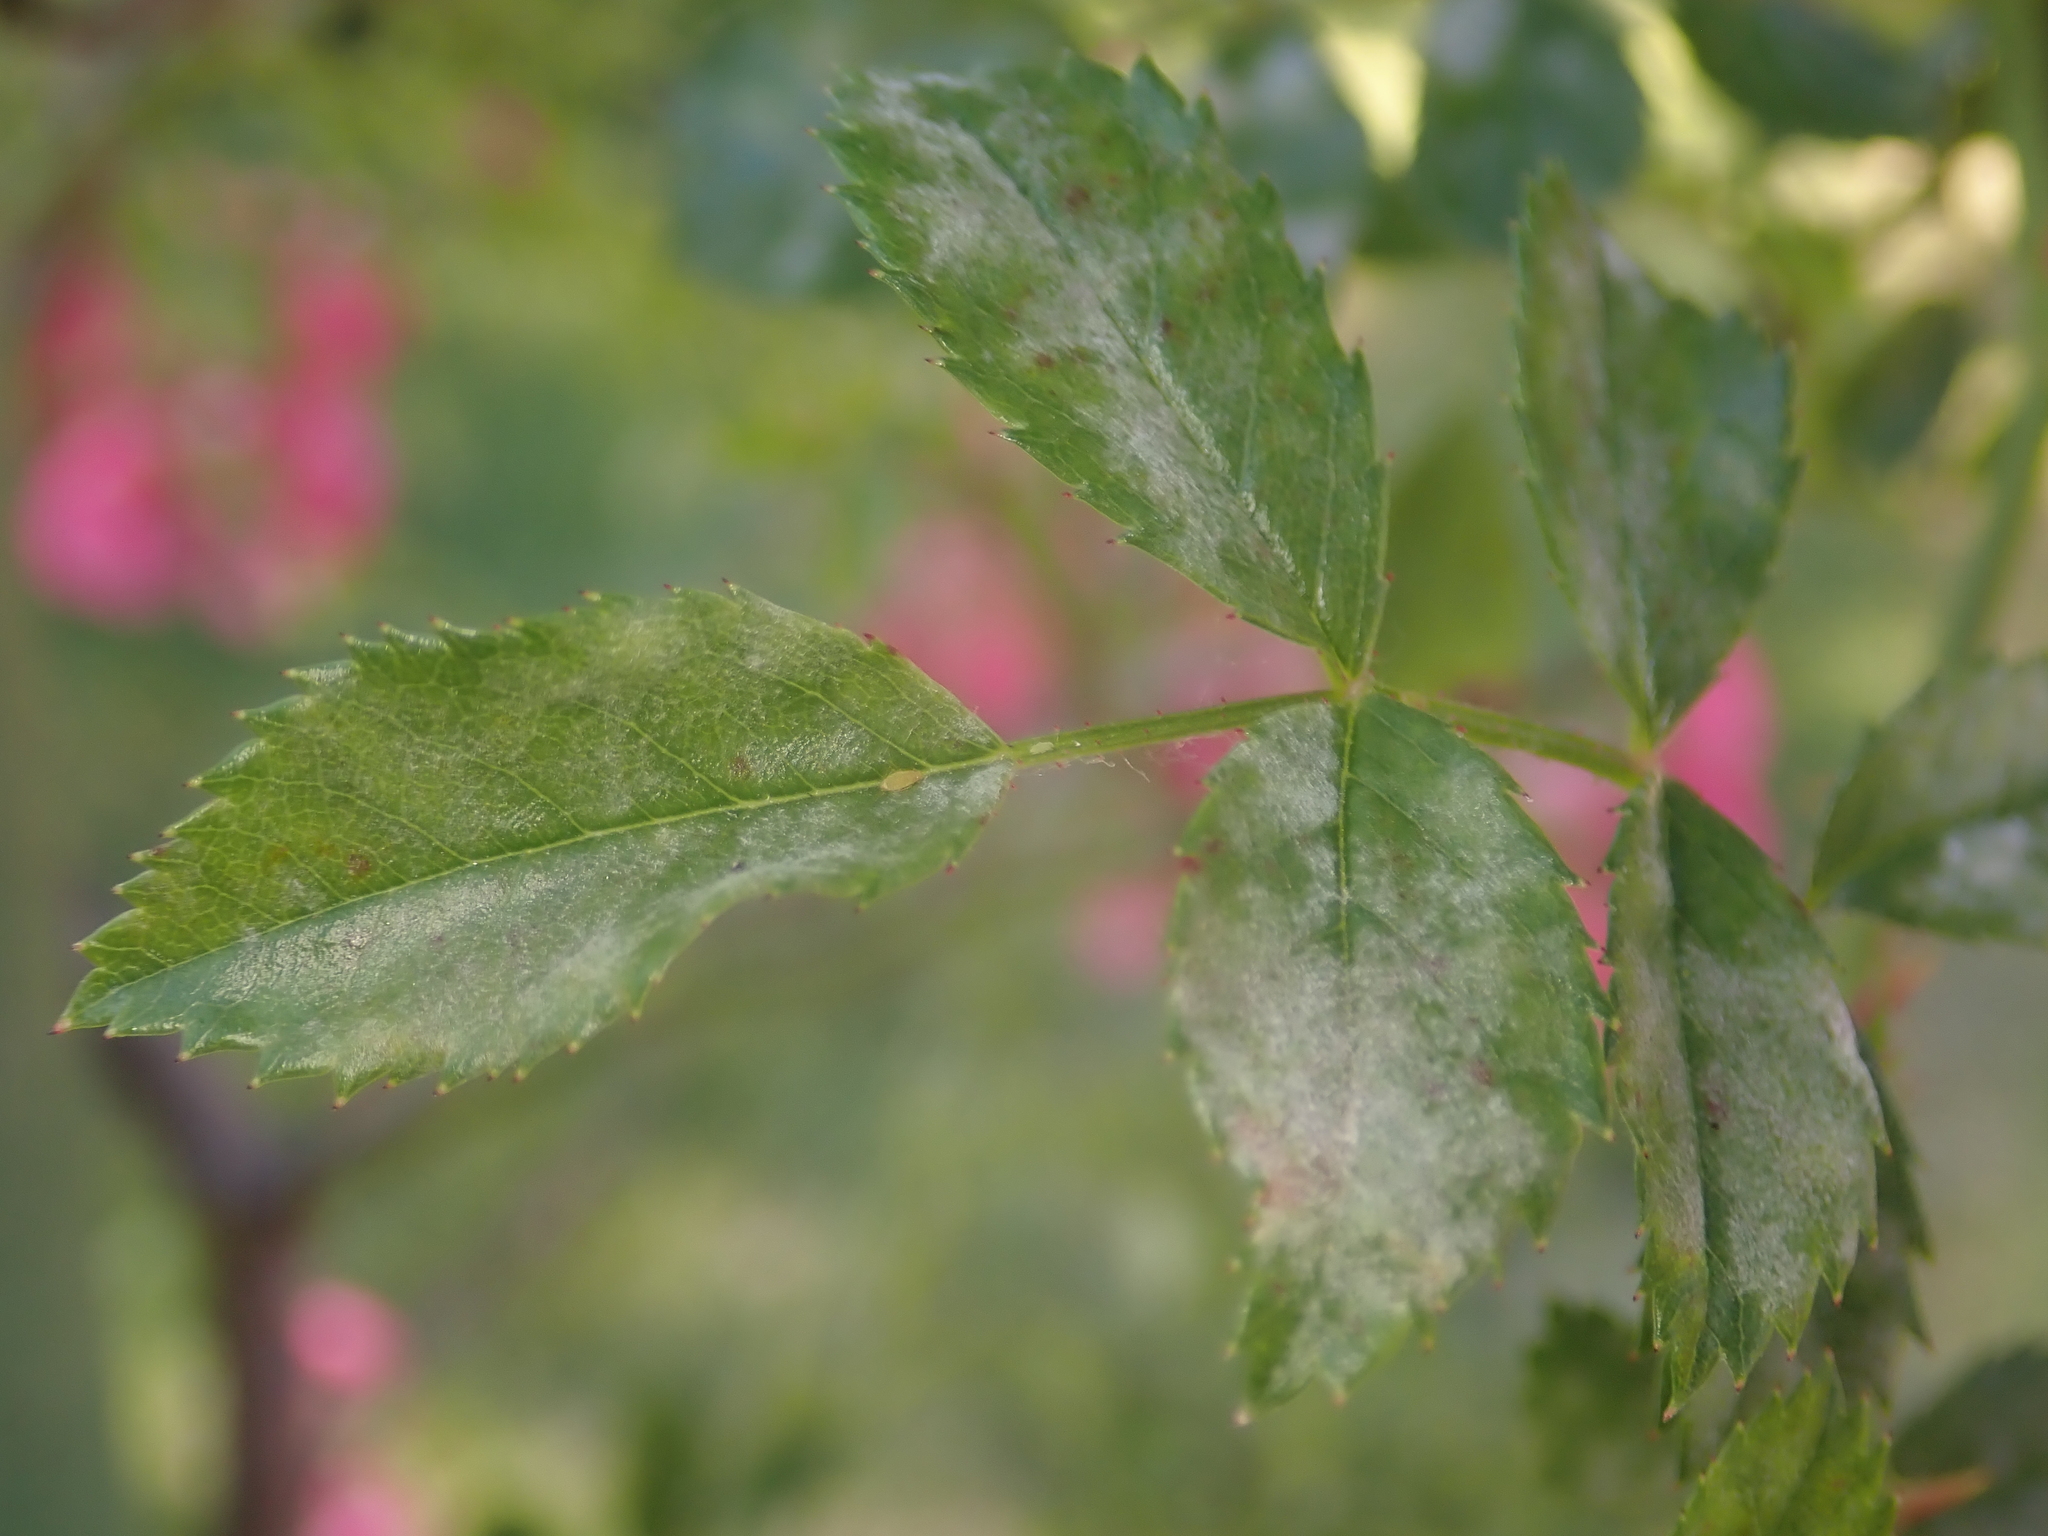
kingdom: Fungi
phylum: Ascomycota
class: Leotiomycetes
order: Helotiales
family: Erysiphaceae
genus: Podosphaera
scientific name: Podosphaera pannosa
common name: Rose mildew
